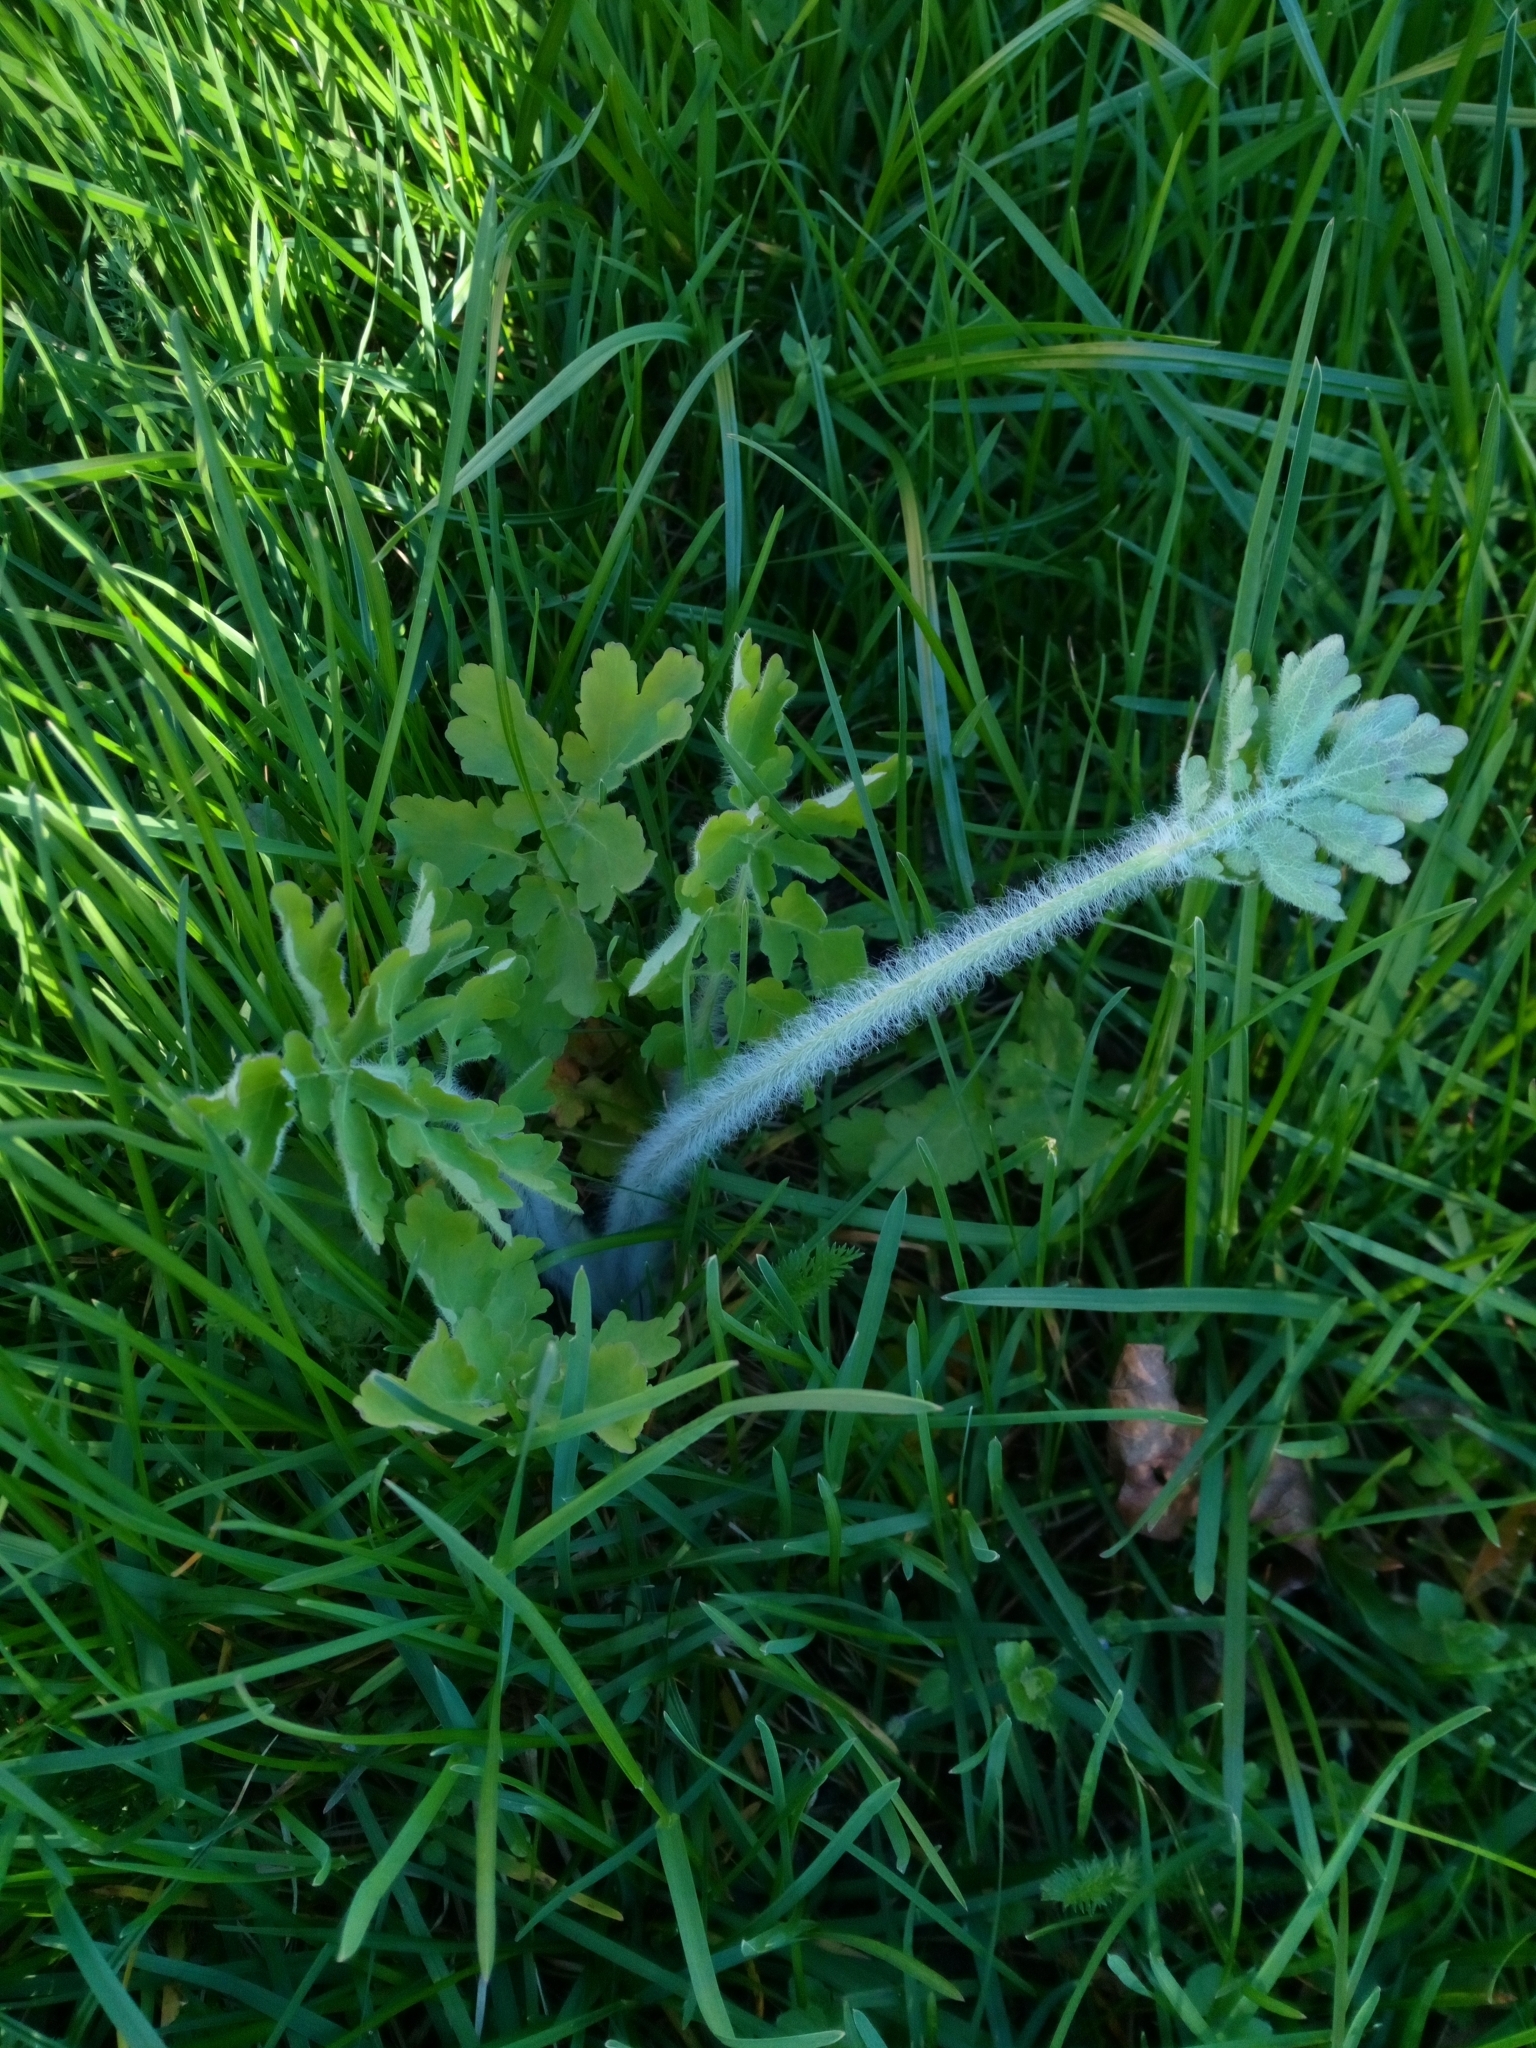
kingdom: Plantae
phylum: Tracheophyta
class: Magnoliopsida
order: Ranunculales
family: Papaveraceae
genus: Chelidonium
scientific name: Chelidonium majus
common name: Greater celandine
